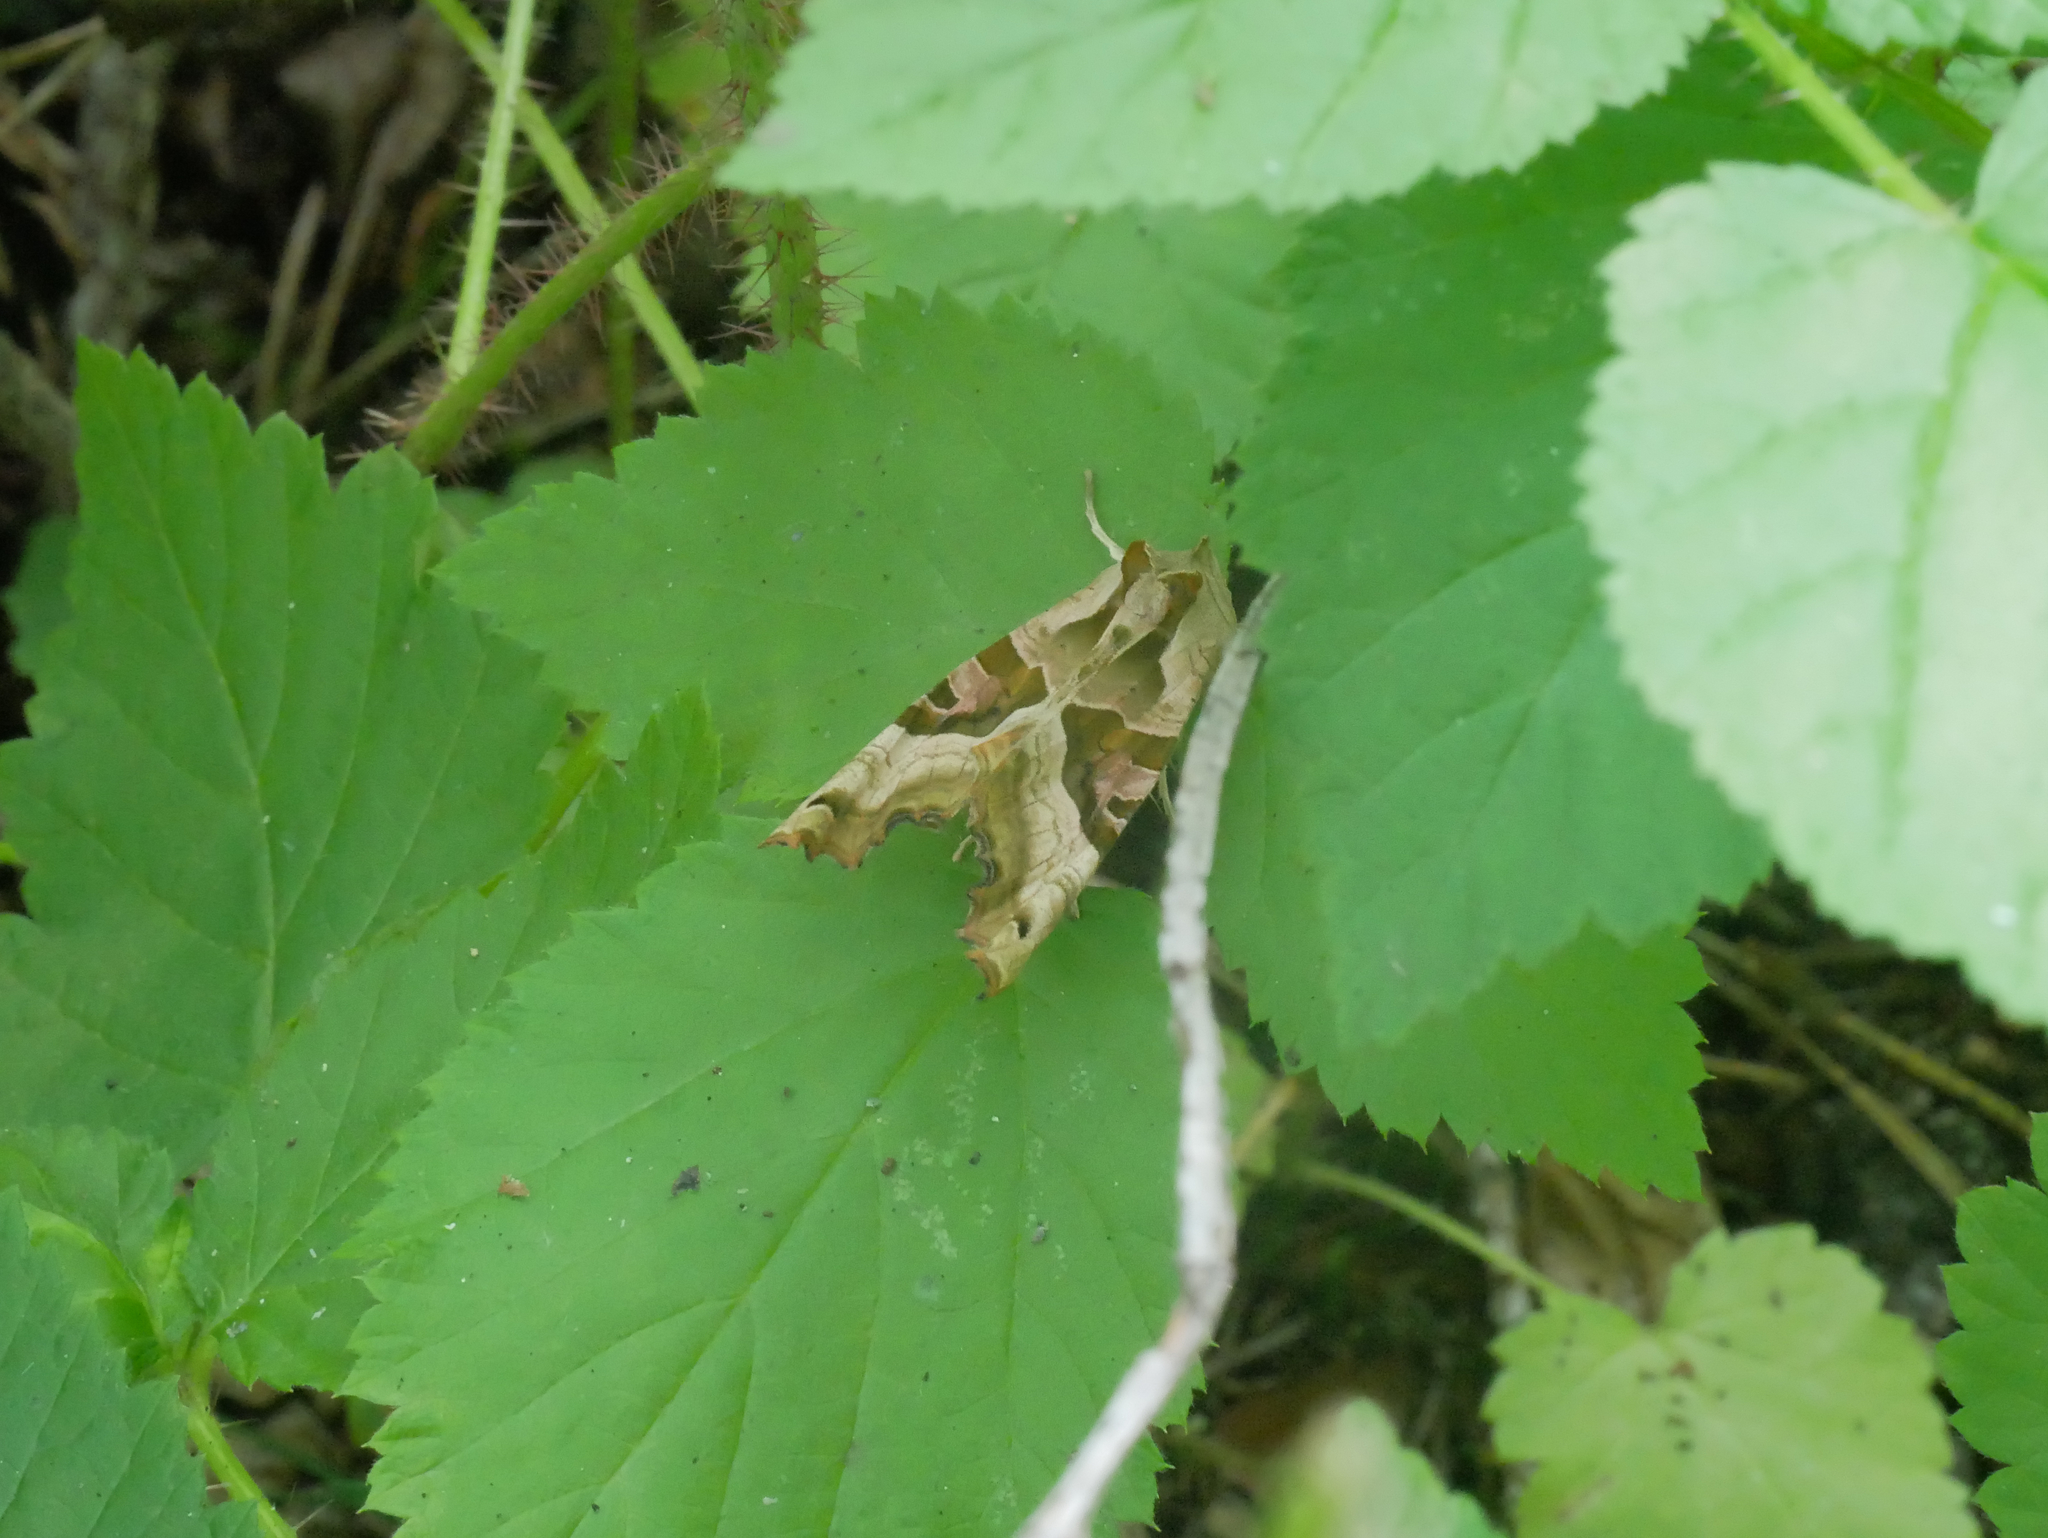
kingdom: Animalia
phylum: Arthropoda
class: Insecta
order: Lepidoptera
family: Noctuidae
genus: Phlogophora
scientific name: Phlogophora meticulosa
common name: Angle shades
